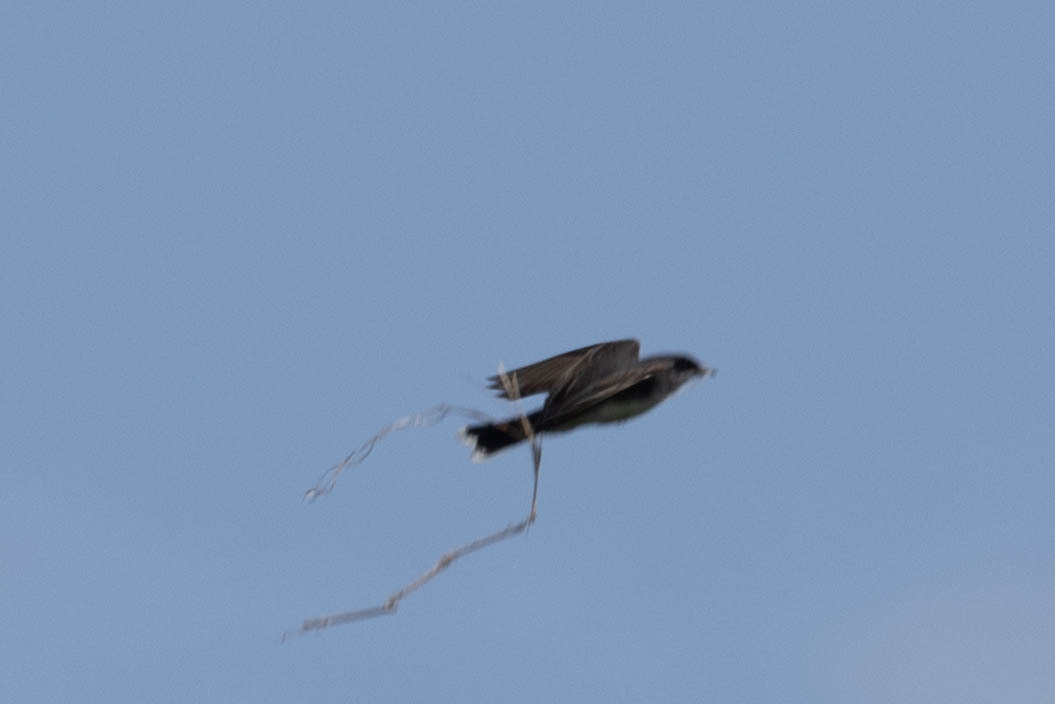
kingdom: Animalia
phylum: Chordata
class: Aves
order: Passeriformes
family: Tyrannidae
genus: Tyrannus
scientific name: Tyrannus tyrannus
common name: Eastern kingbird
